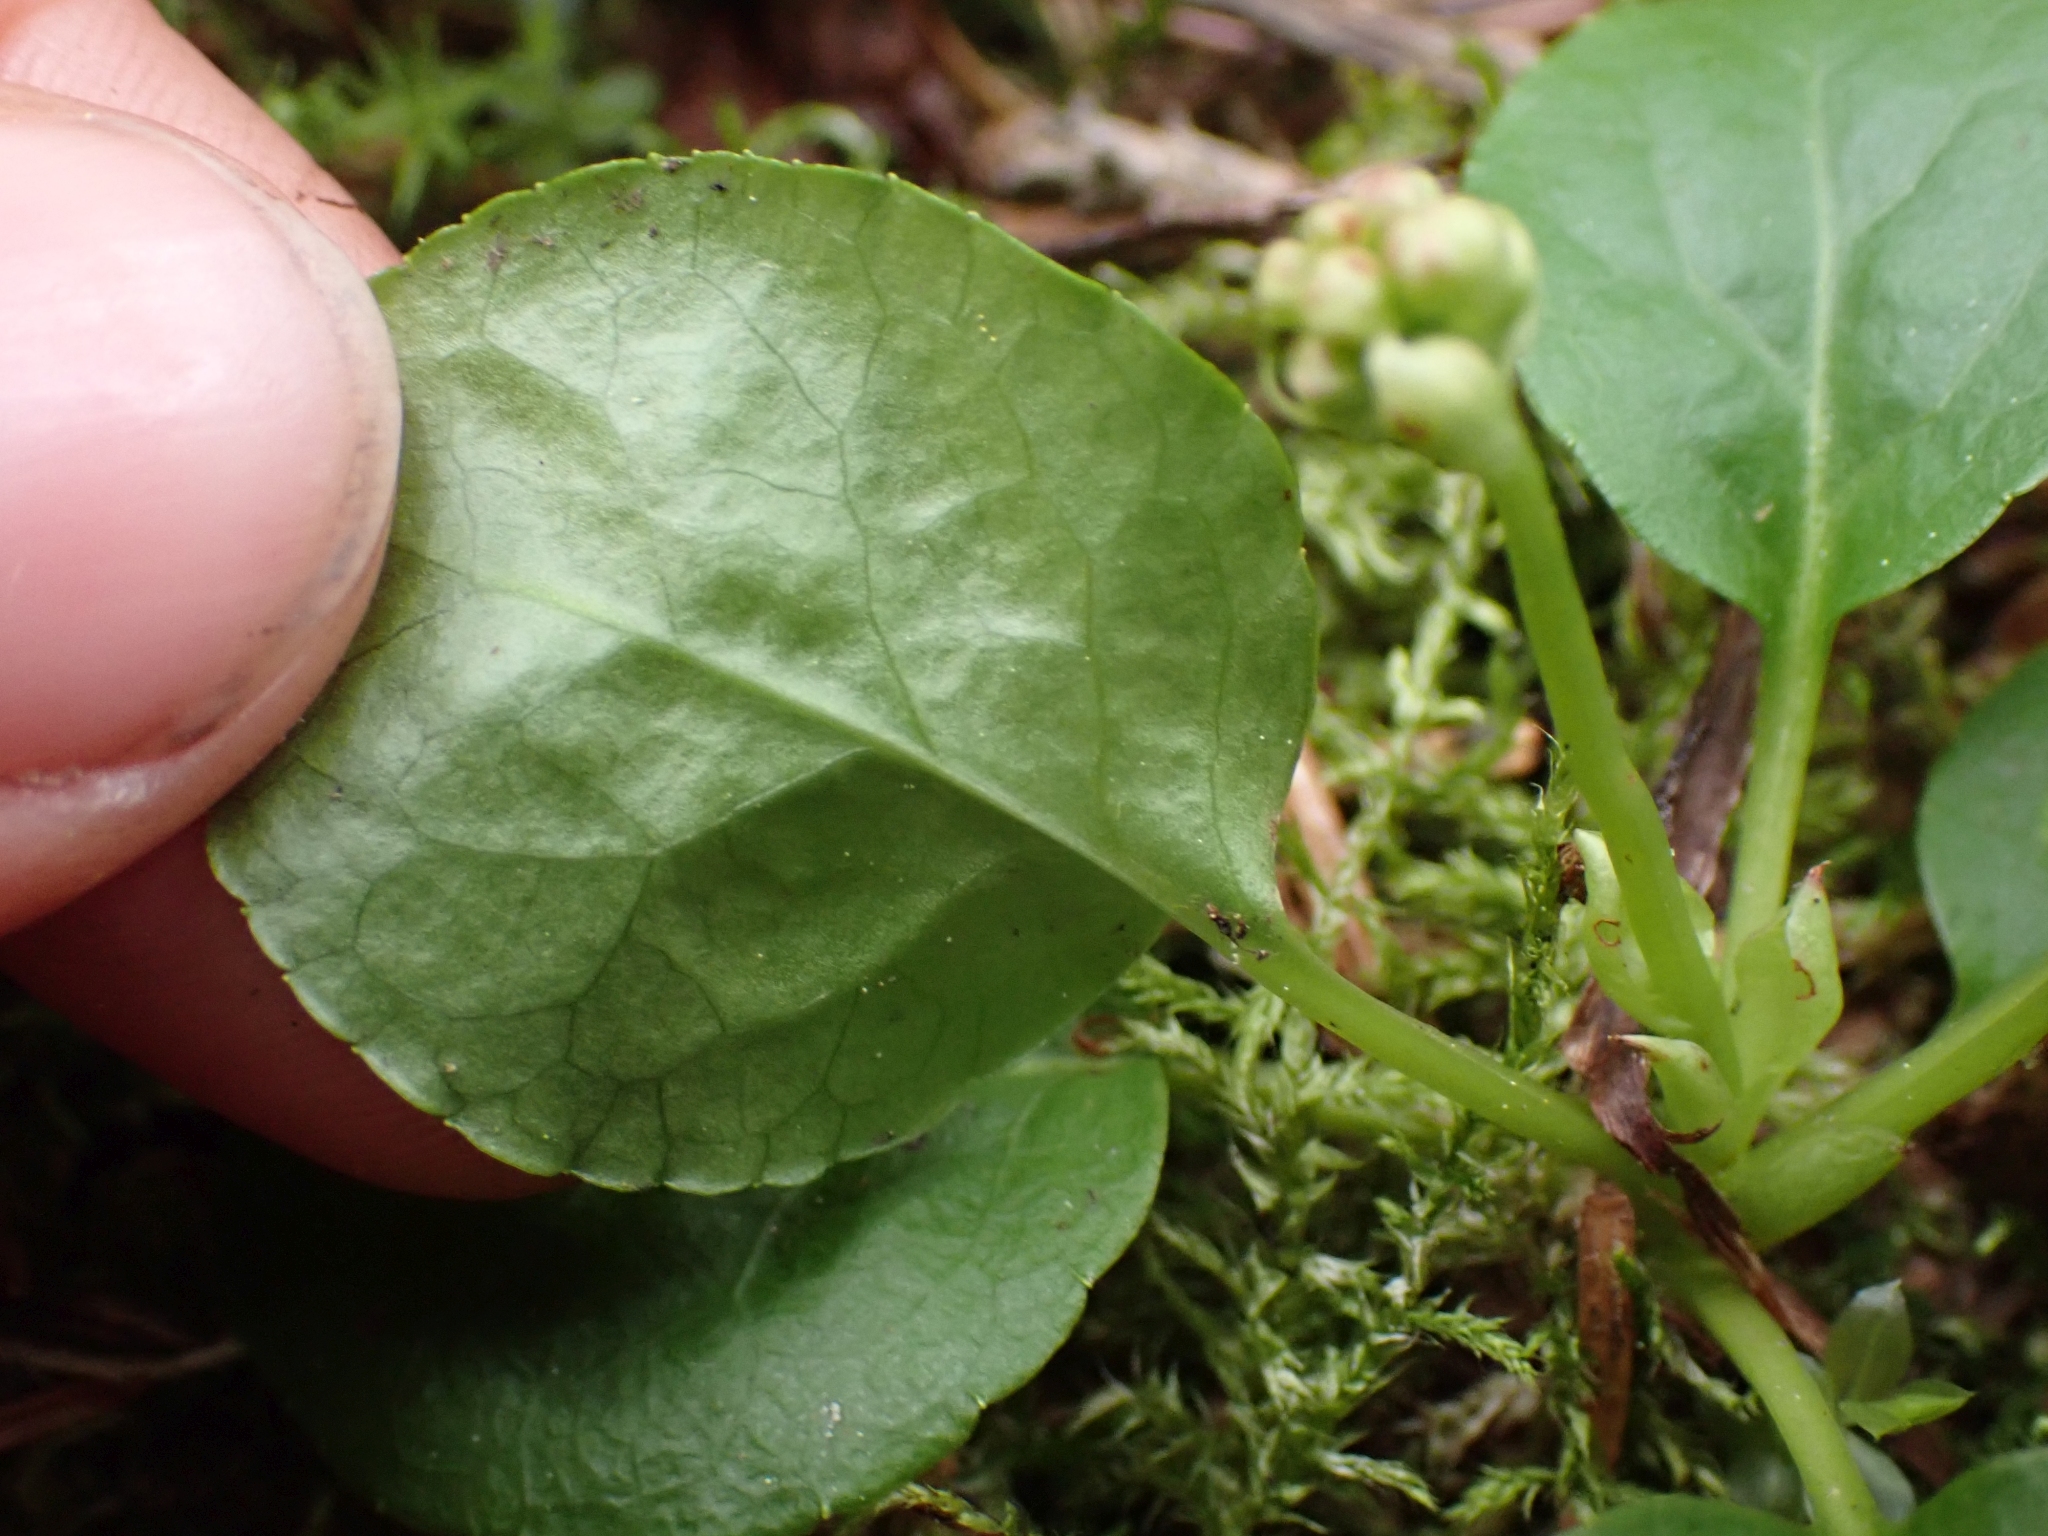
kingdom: Plantae
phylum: Tracheophyta
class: Magnoliopsida
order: Ericales
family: Ericaceae
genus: Orthilia
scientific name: Orthilia secunda
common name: One-sided orthilia
